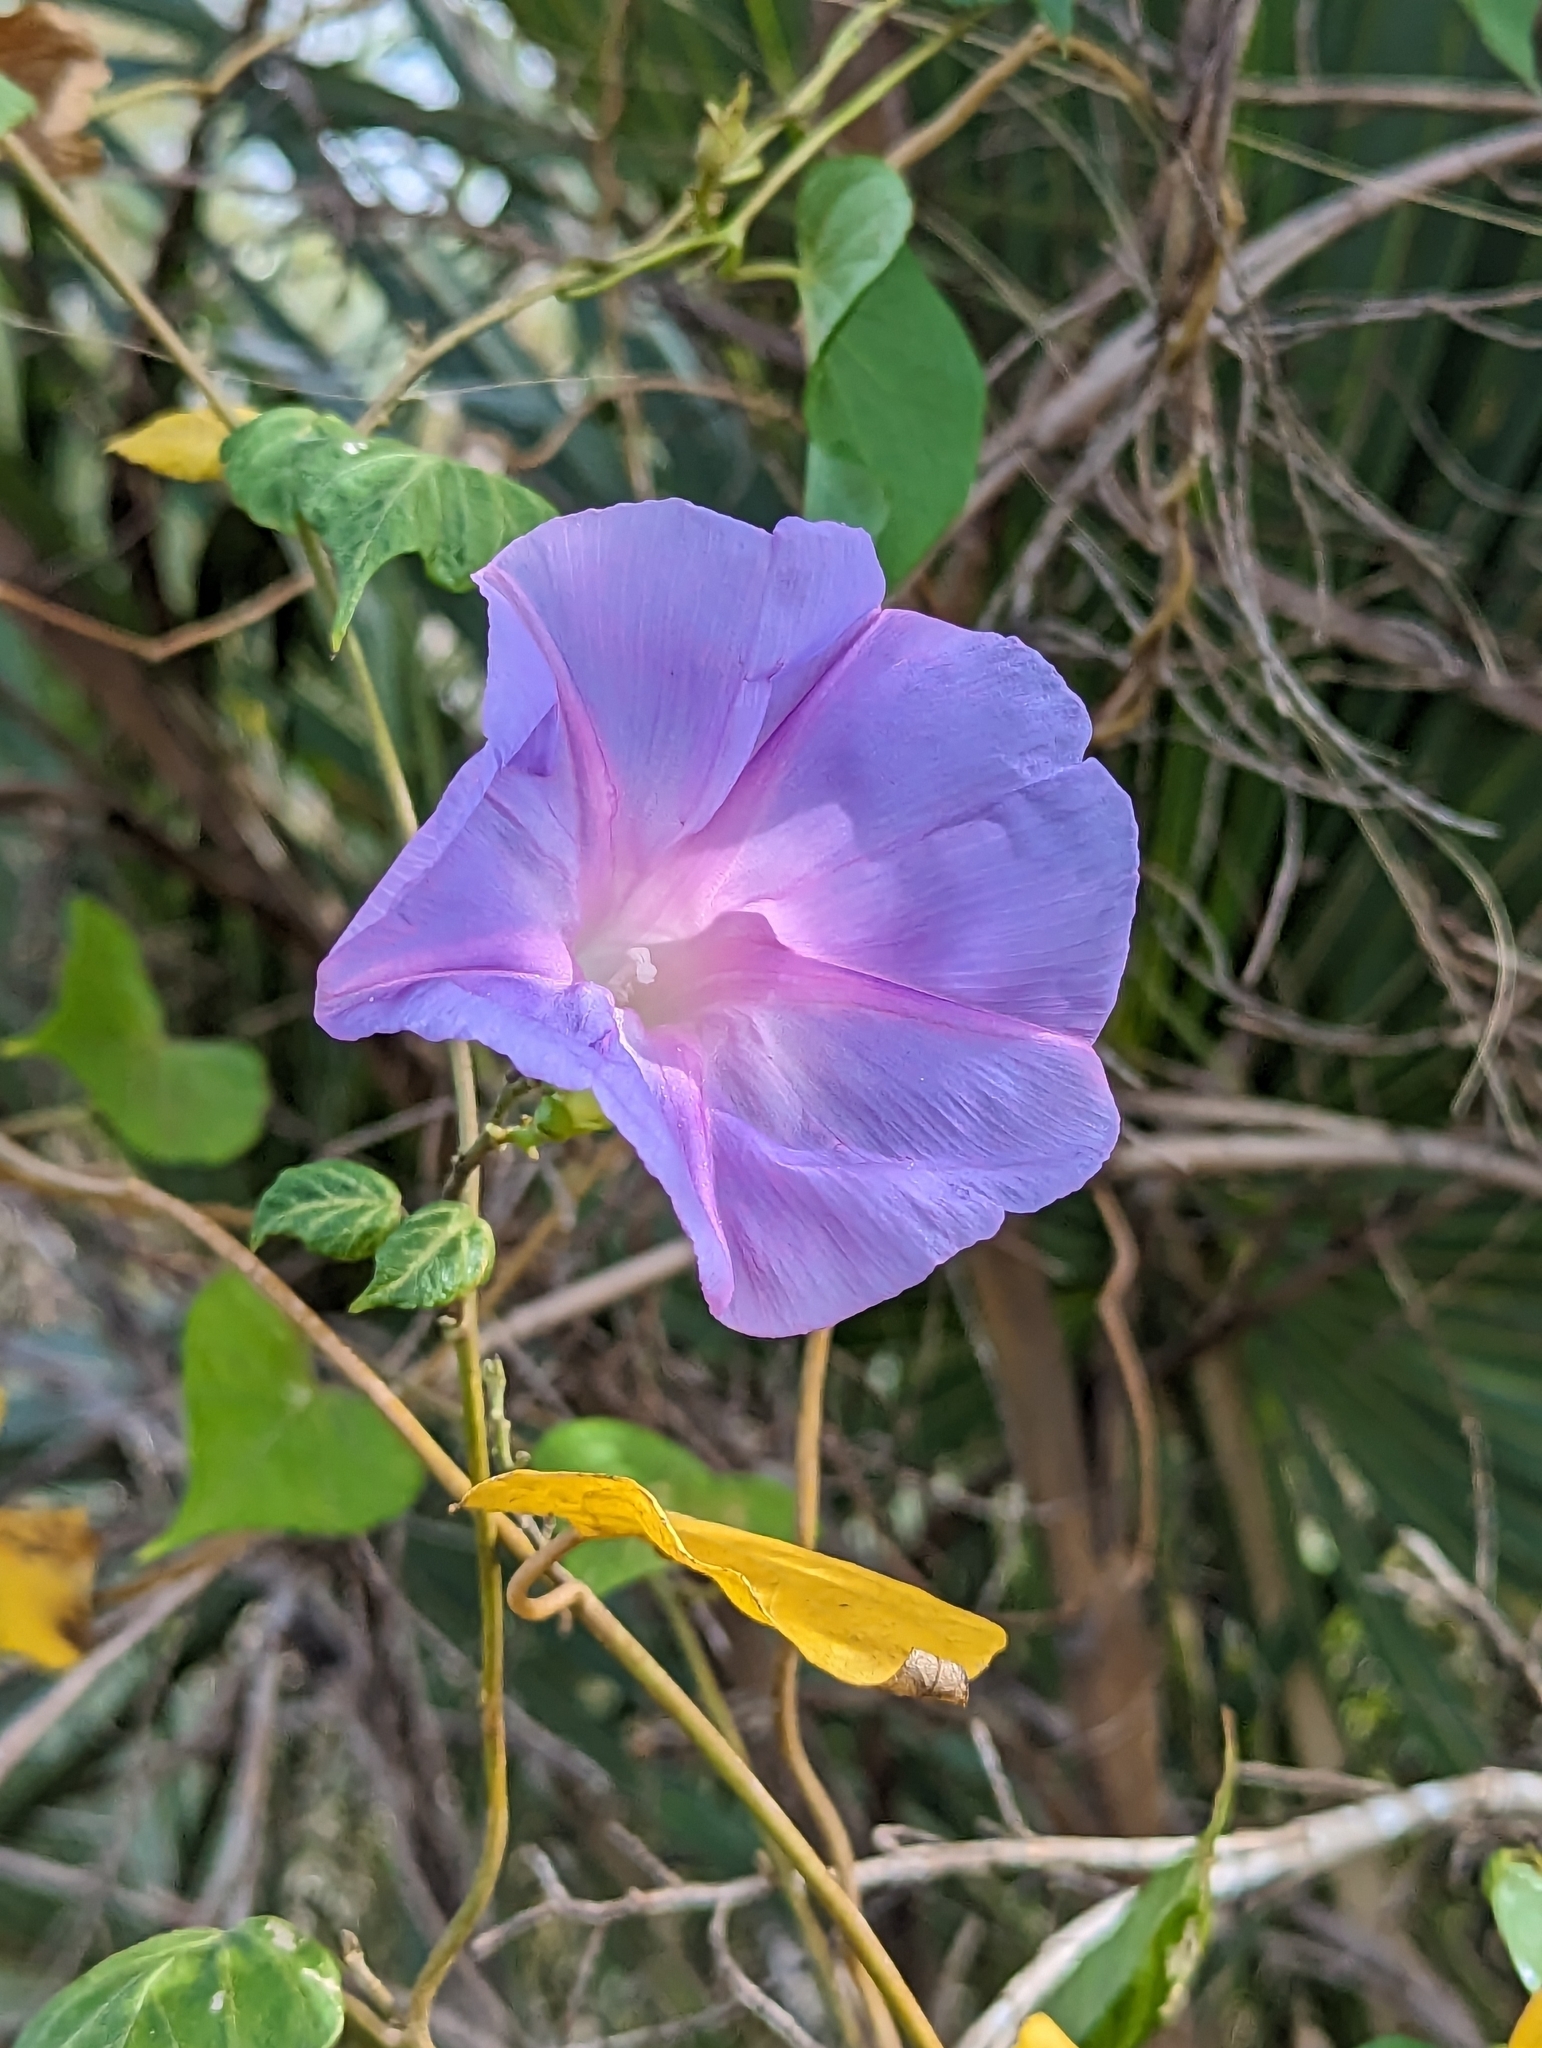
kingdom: Plantae
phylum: Tracheophyta
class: Magnoliopsida
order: Solanales
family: Convolvulaceae
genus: Ipomoea
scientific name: Ipomoea indica
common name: Blue dawnflower
